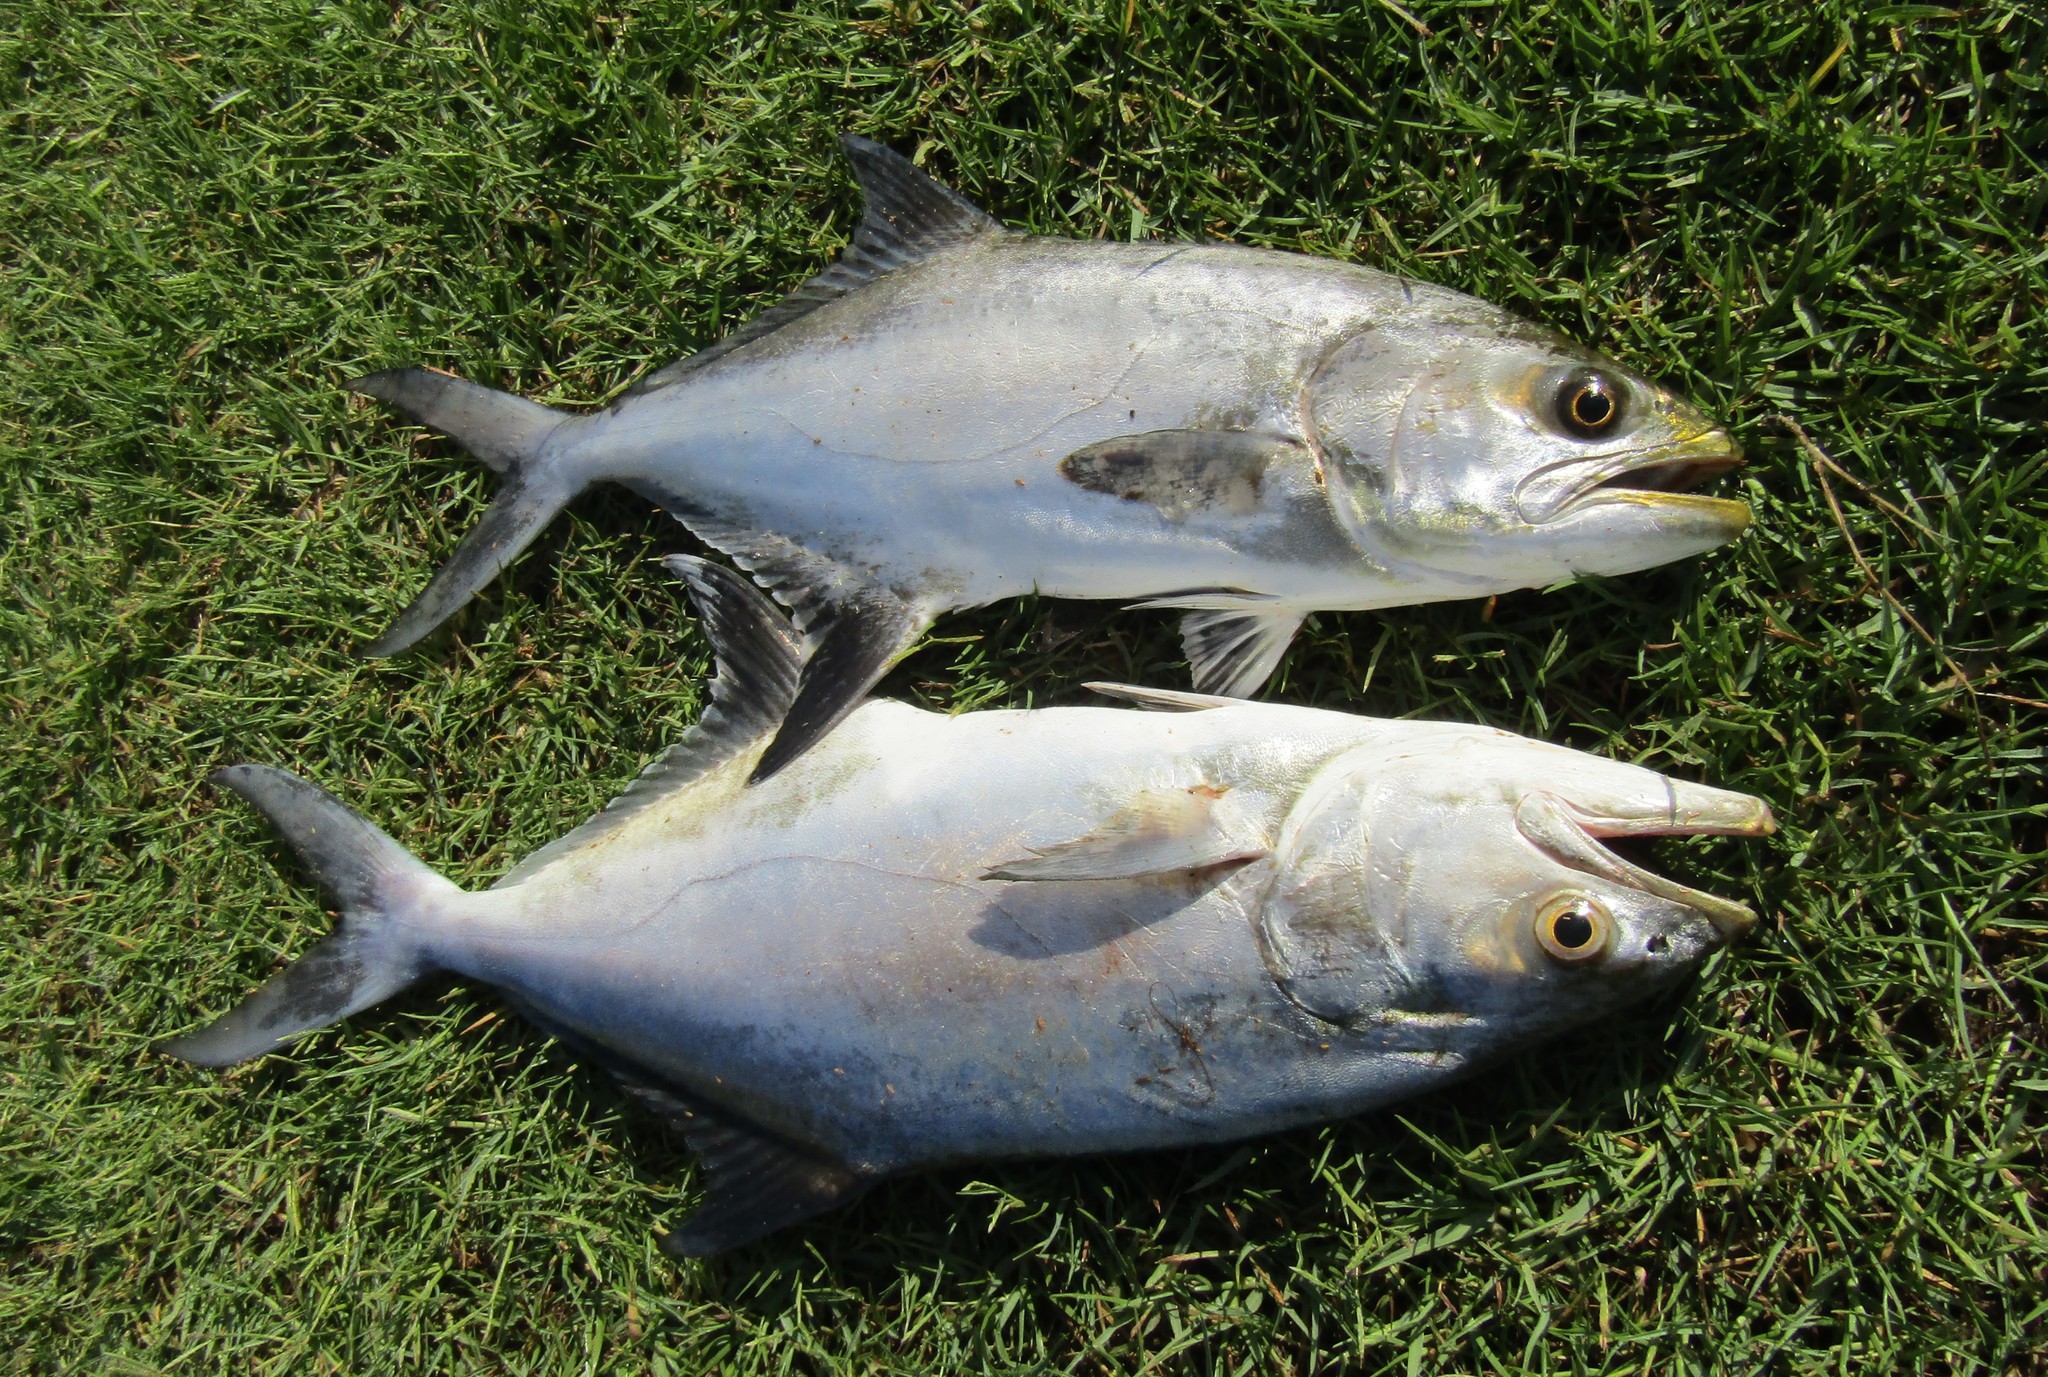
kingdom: Animalia
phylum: Chordata
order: Perciformes
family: Carangidae
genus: Lichia
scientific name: Lichia amia
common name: Leerfish
